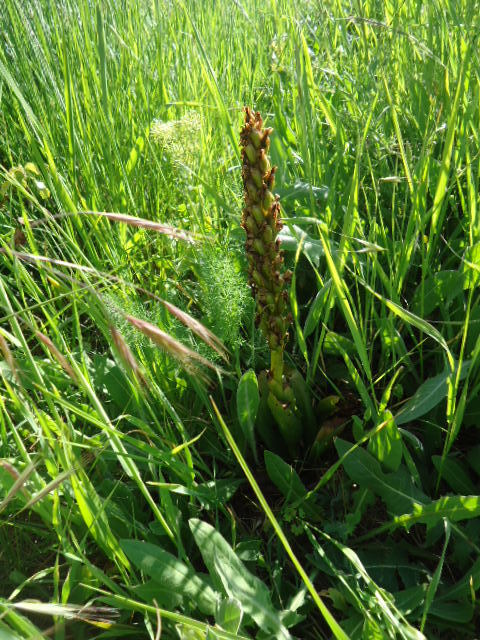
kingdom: Plantae
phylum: Tracheophyta
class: Liliopsida
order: Asparagales
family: Orchidaceae
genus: Himantoglossum
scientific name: Himantoglossum robertianum
